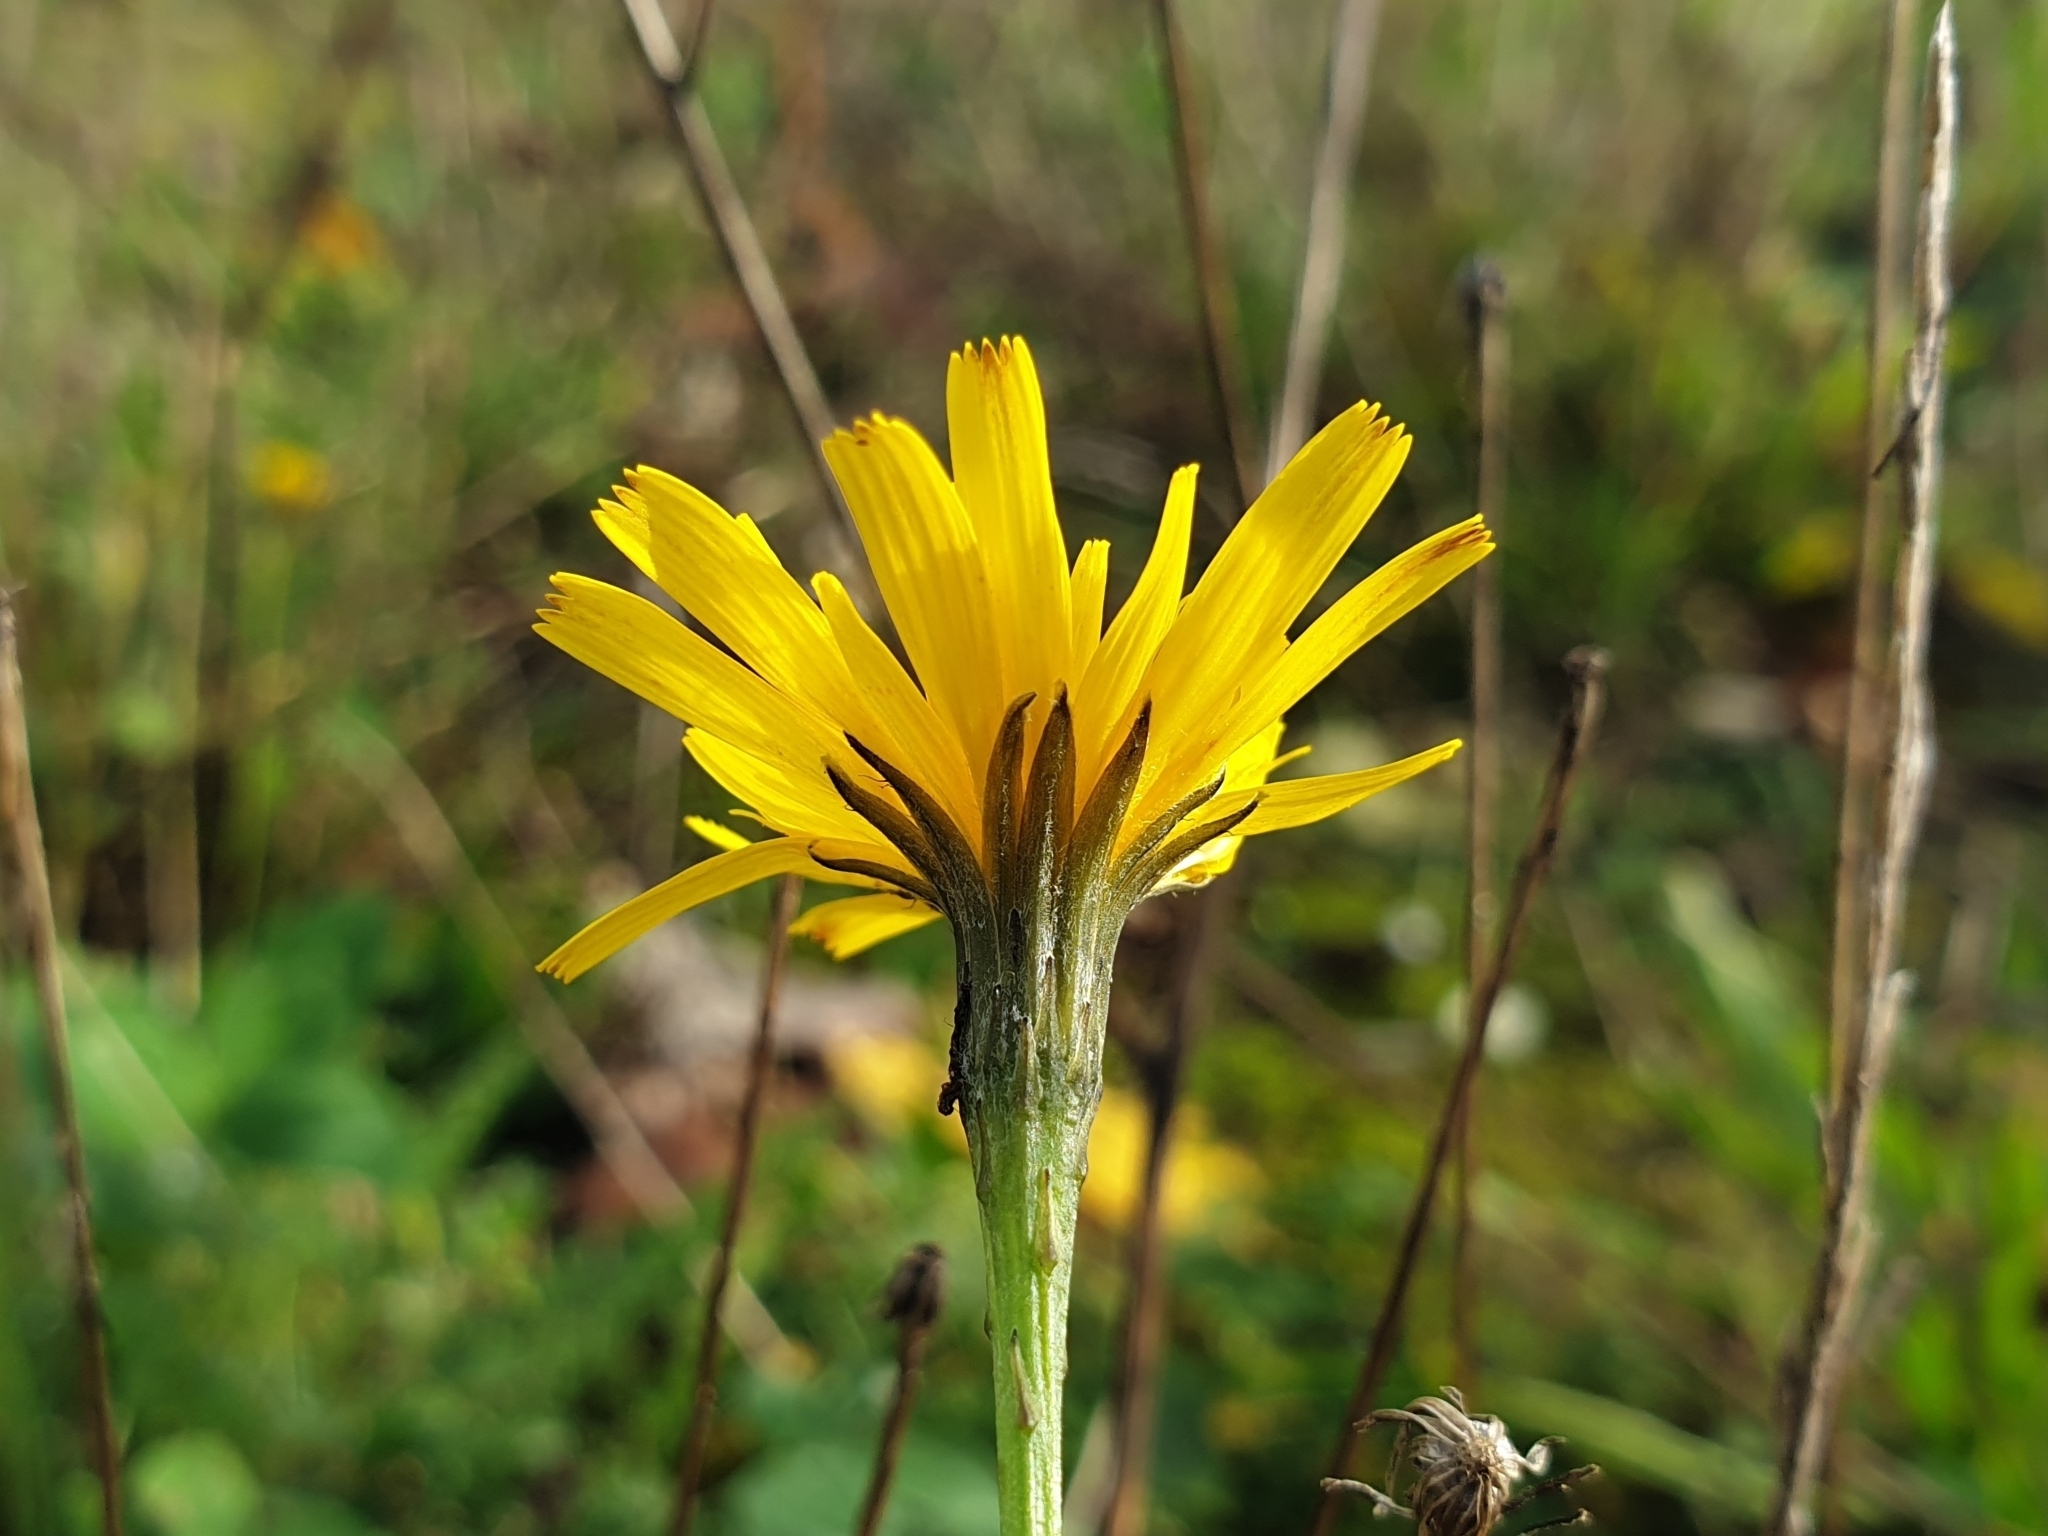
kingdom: Plantae
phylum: Tracheophyta
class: Magnoliopsida
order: Asterales
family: Asteraceae
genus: Scorzoneroides
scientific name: Scorzoneroides autumnalis
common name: Autumn hawkbit
